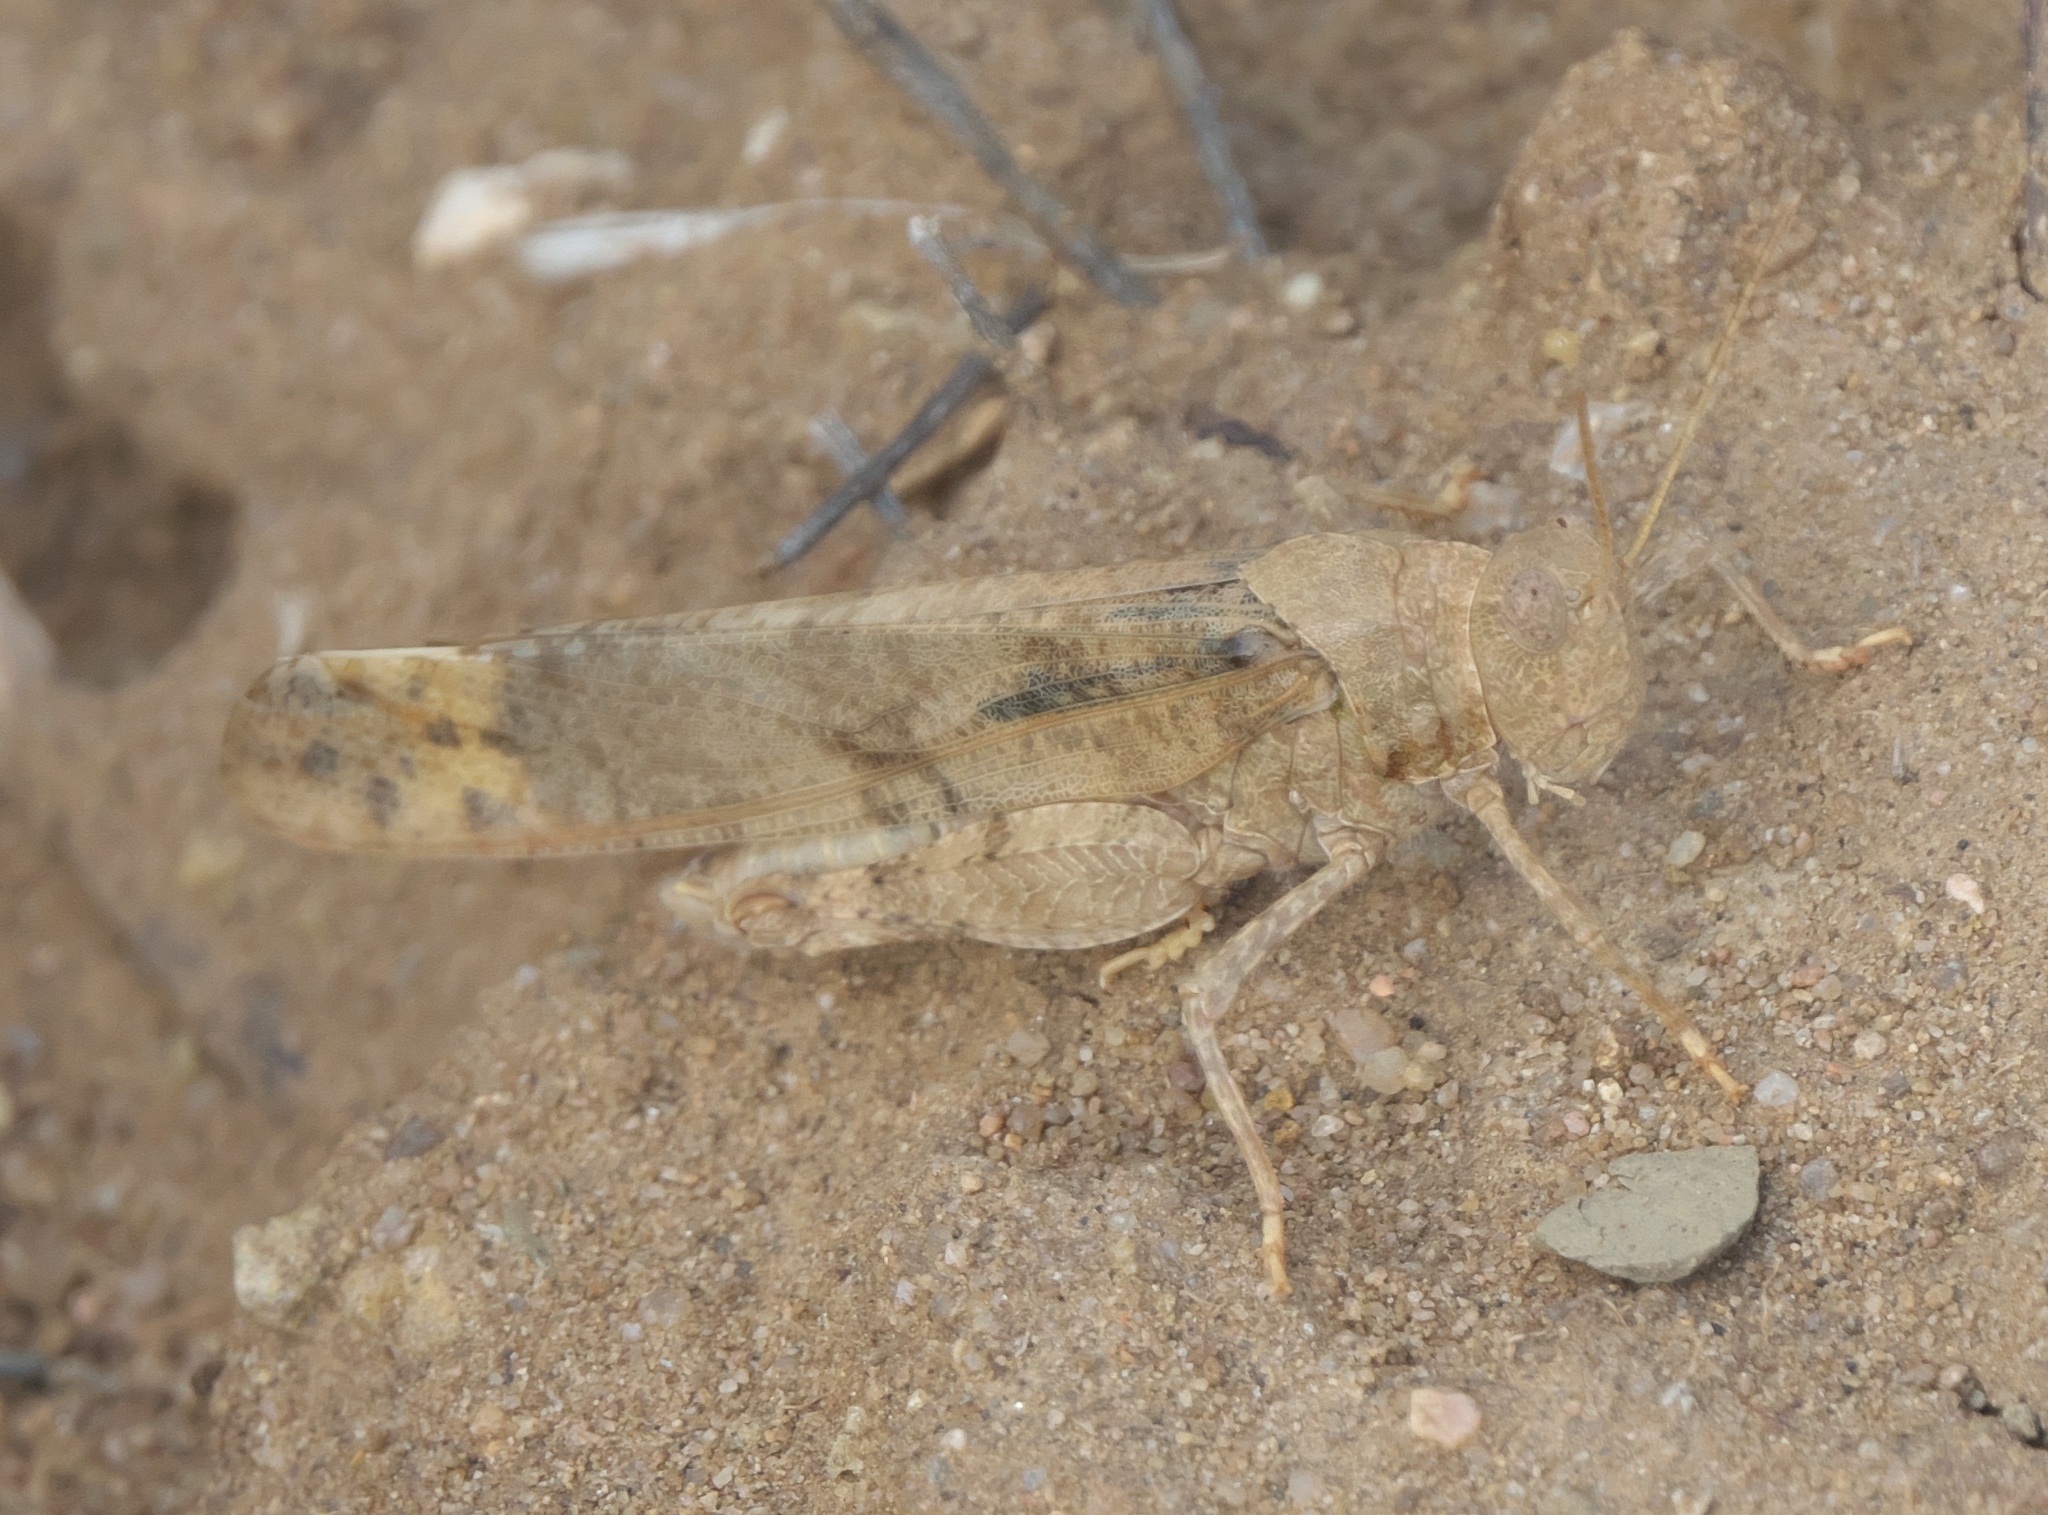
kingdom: Animalia
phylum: Arthropoda
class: Insecta
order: Orthoptera
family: Acrididae
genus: Dissosteira
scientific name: Dissosteira carolina
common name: Carolina grasshopper
